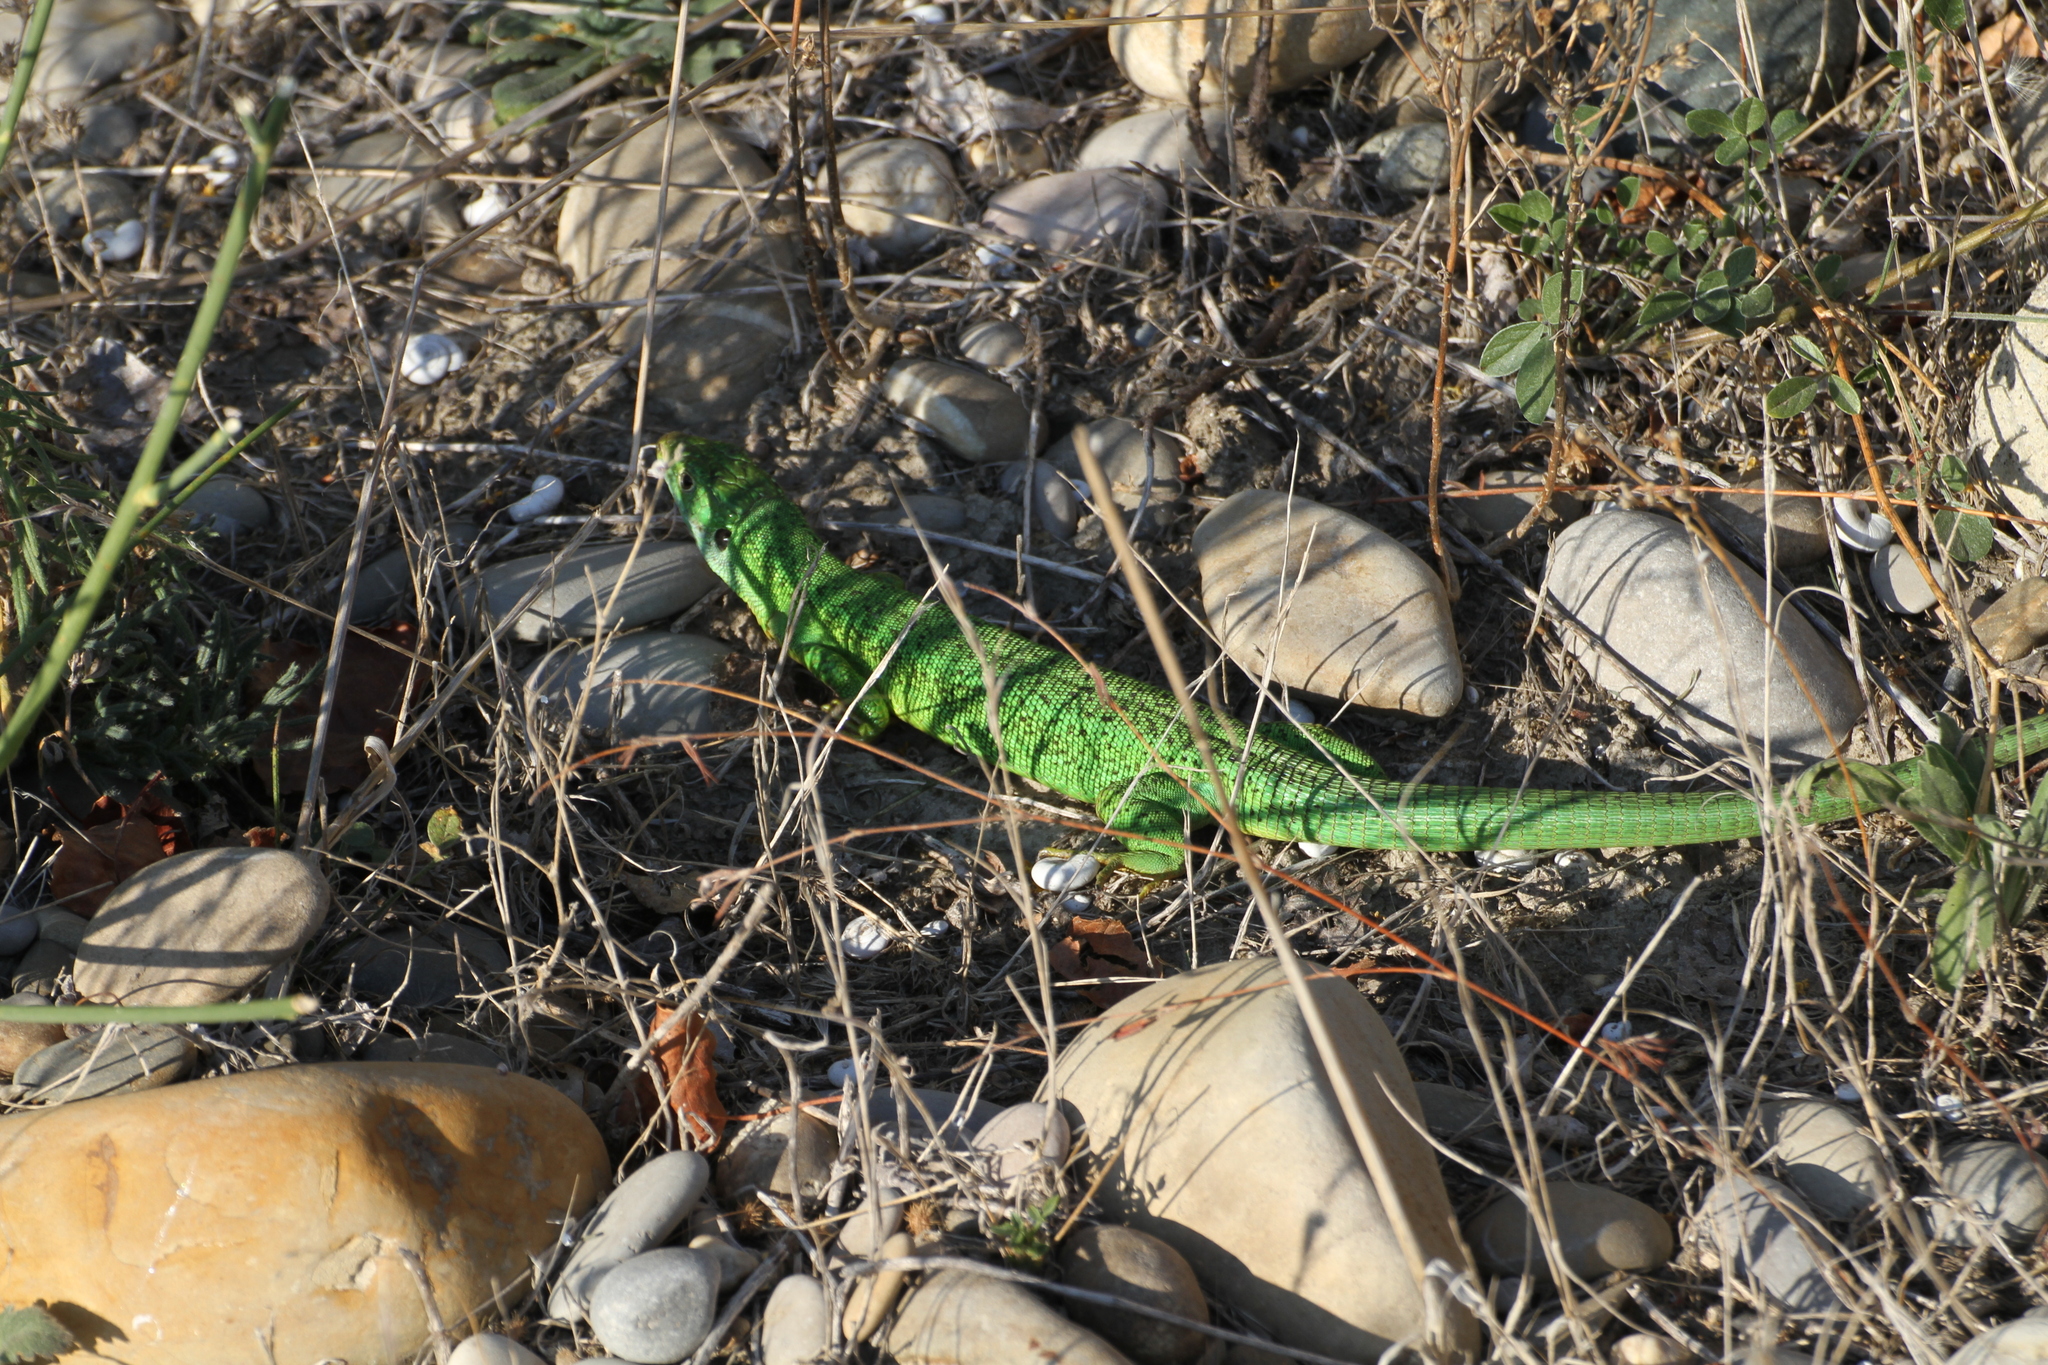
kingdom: Animalia
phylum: Chordata
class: Squamata
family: Lacertidae
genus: Lacerta
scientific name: Lacerta bilineata
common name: Western green lizard
